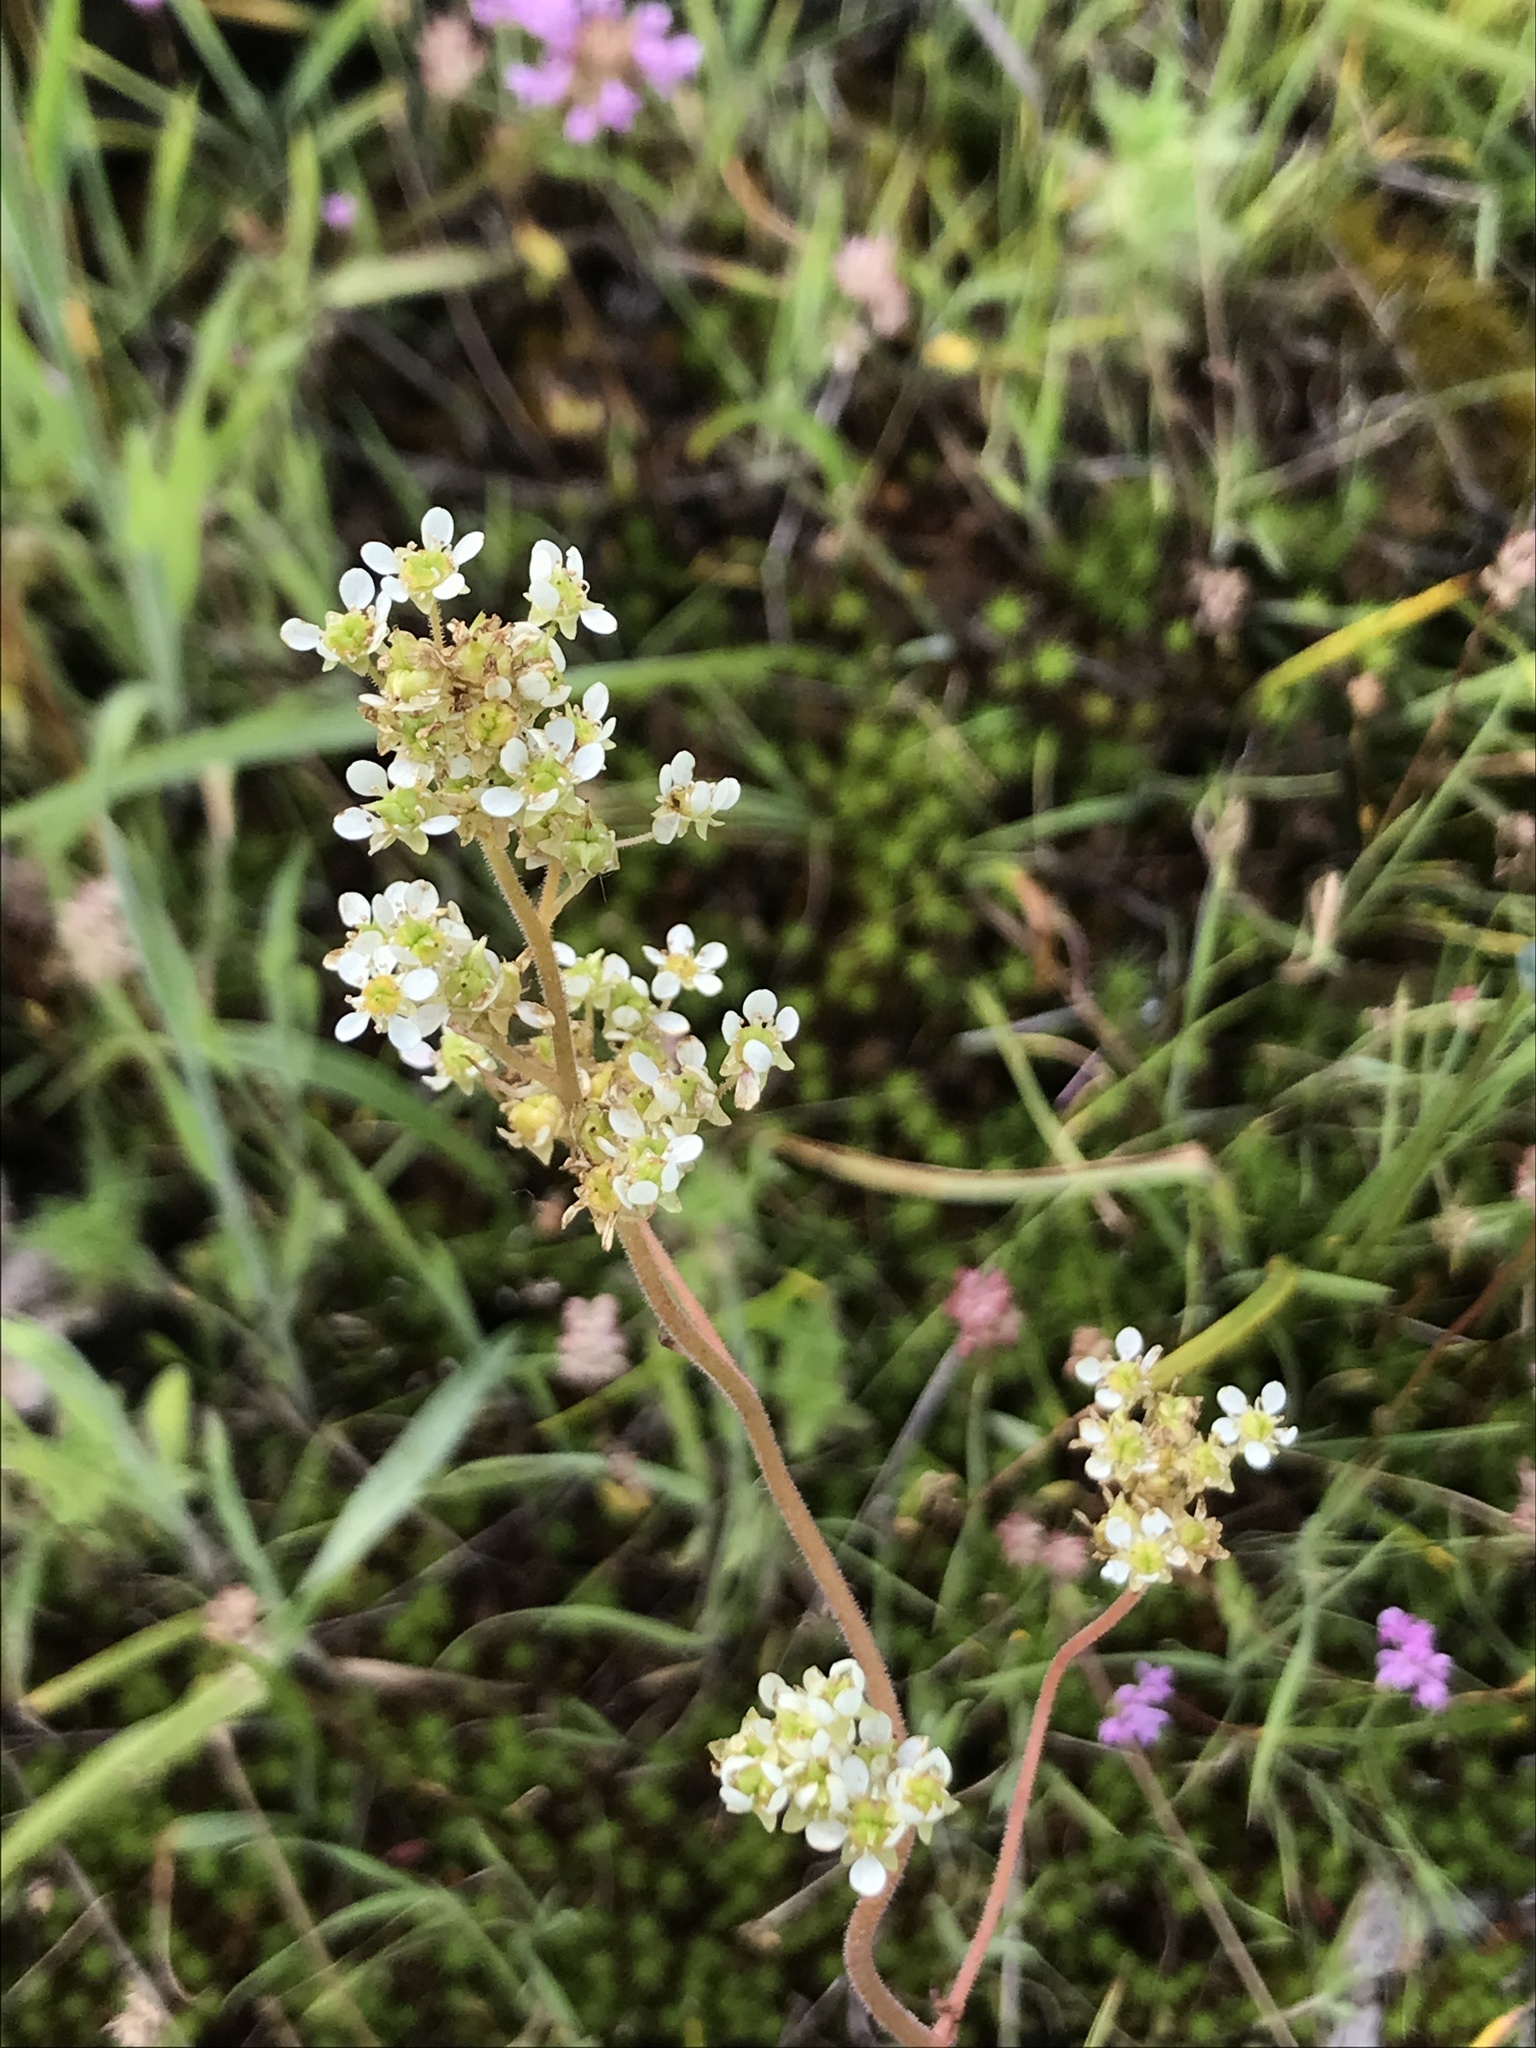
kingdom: Plantae
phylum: Tracheophyta
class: Magnoliopsida
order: Saxifragales
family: Saxifragaceae
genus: Micranthes
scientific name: Micranthes integrifolia
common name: Wholeleaf saxifrage
